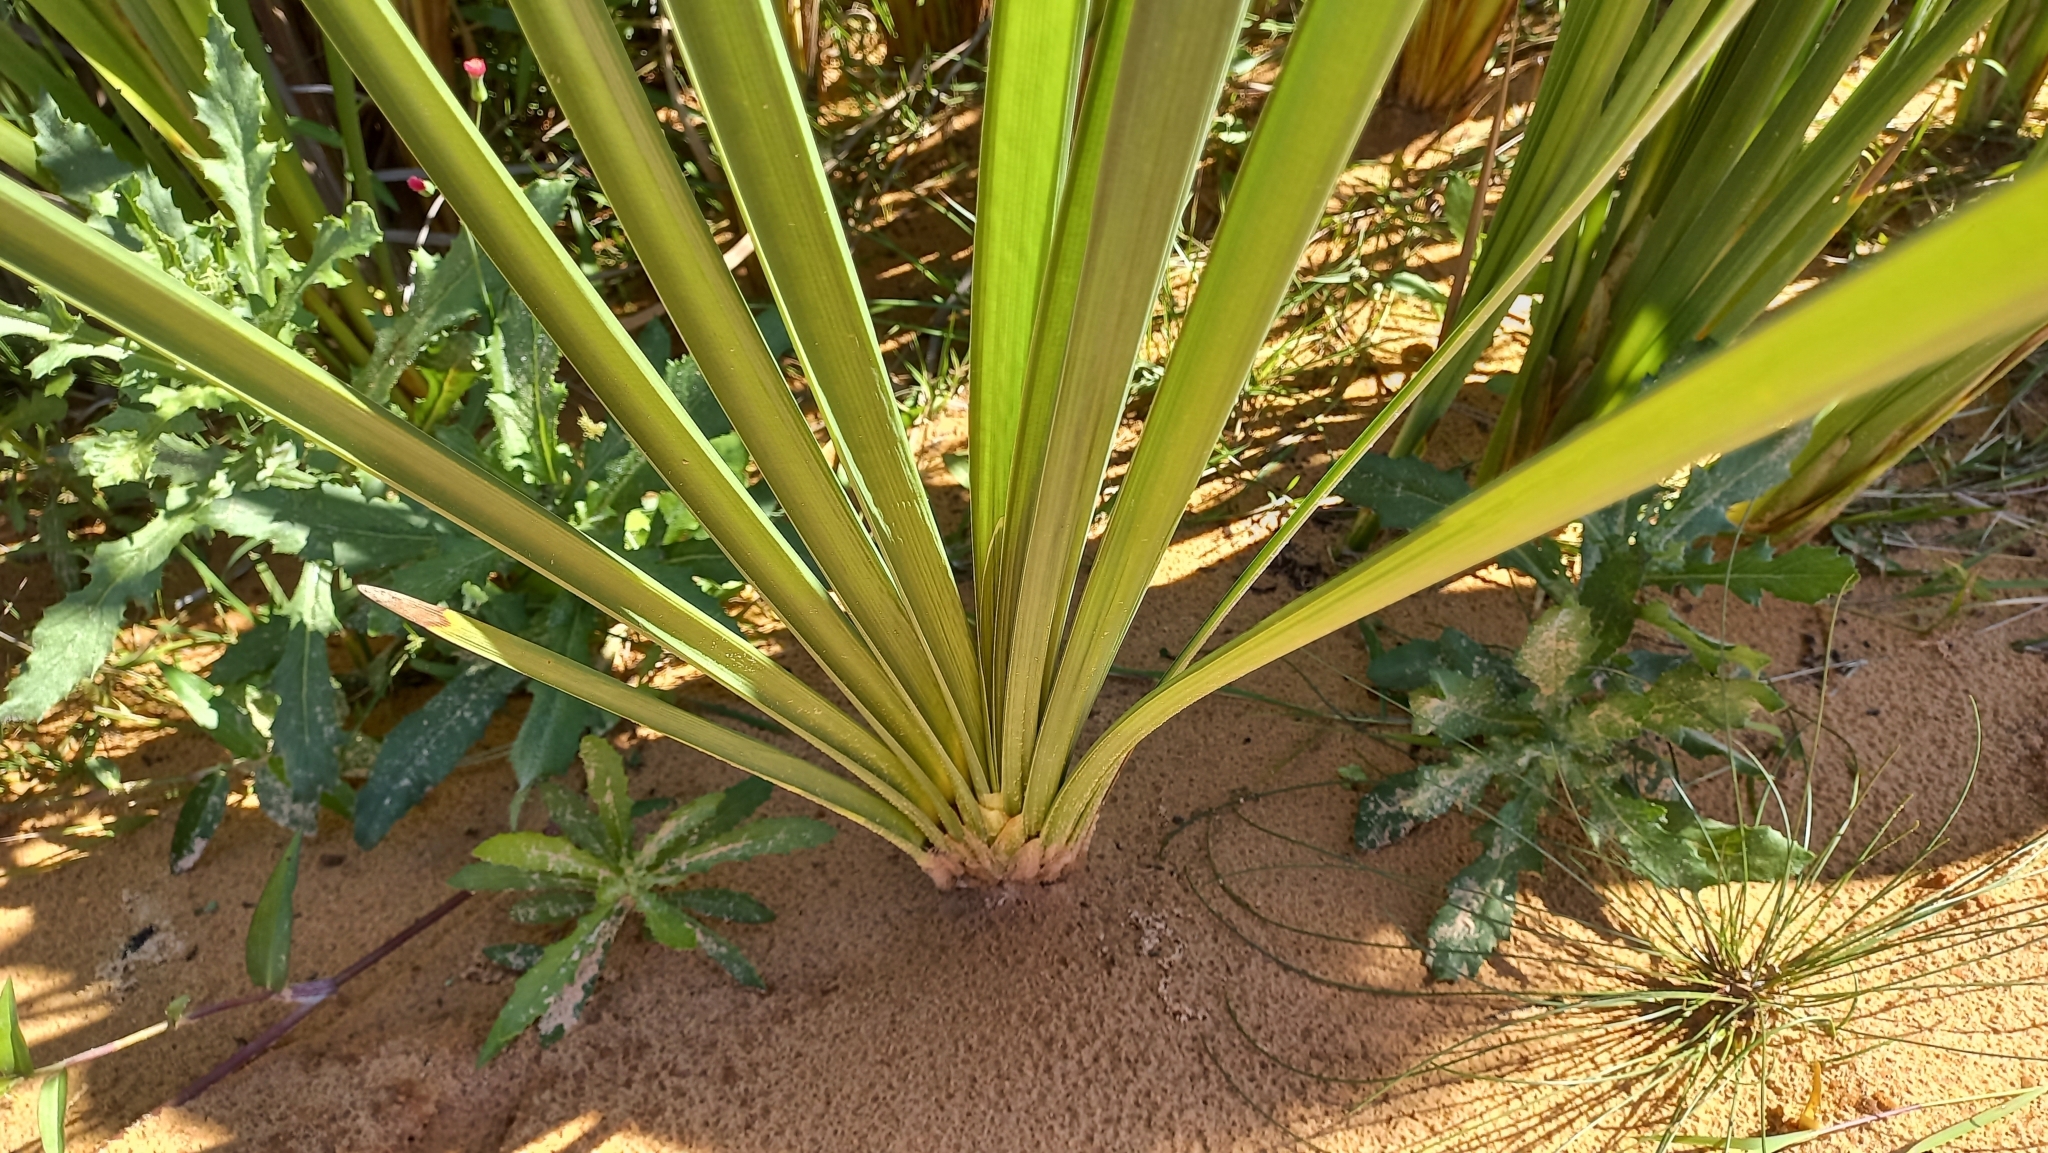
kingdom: Plantae
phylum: Tracheophyta
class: Liliopsida
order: Poales
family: Typhaceae
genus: Typha
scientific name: Typha domingensis
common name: Southern cattail
